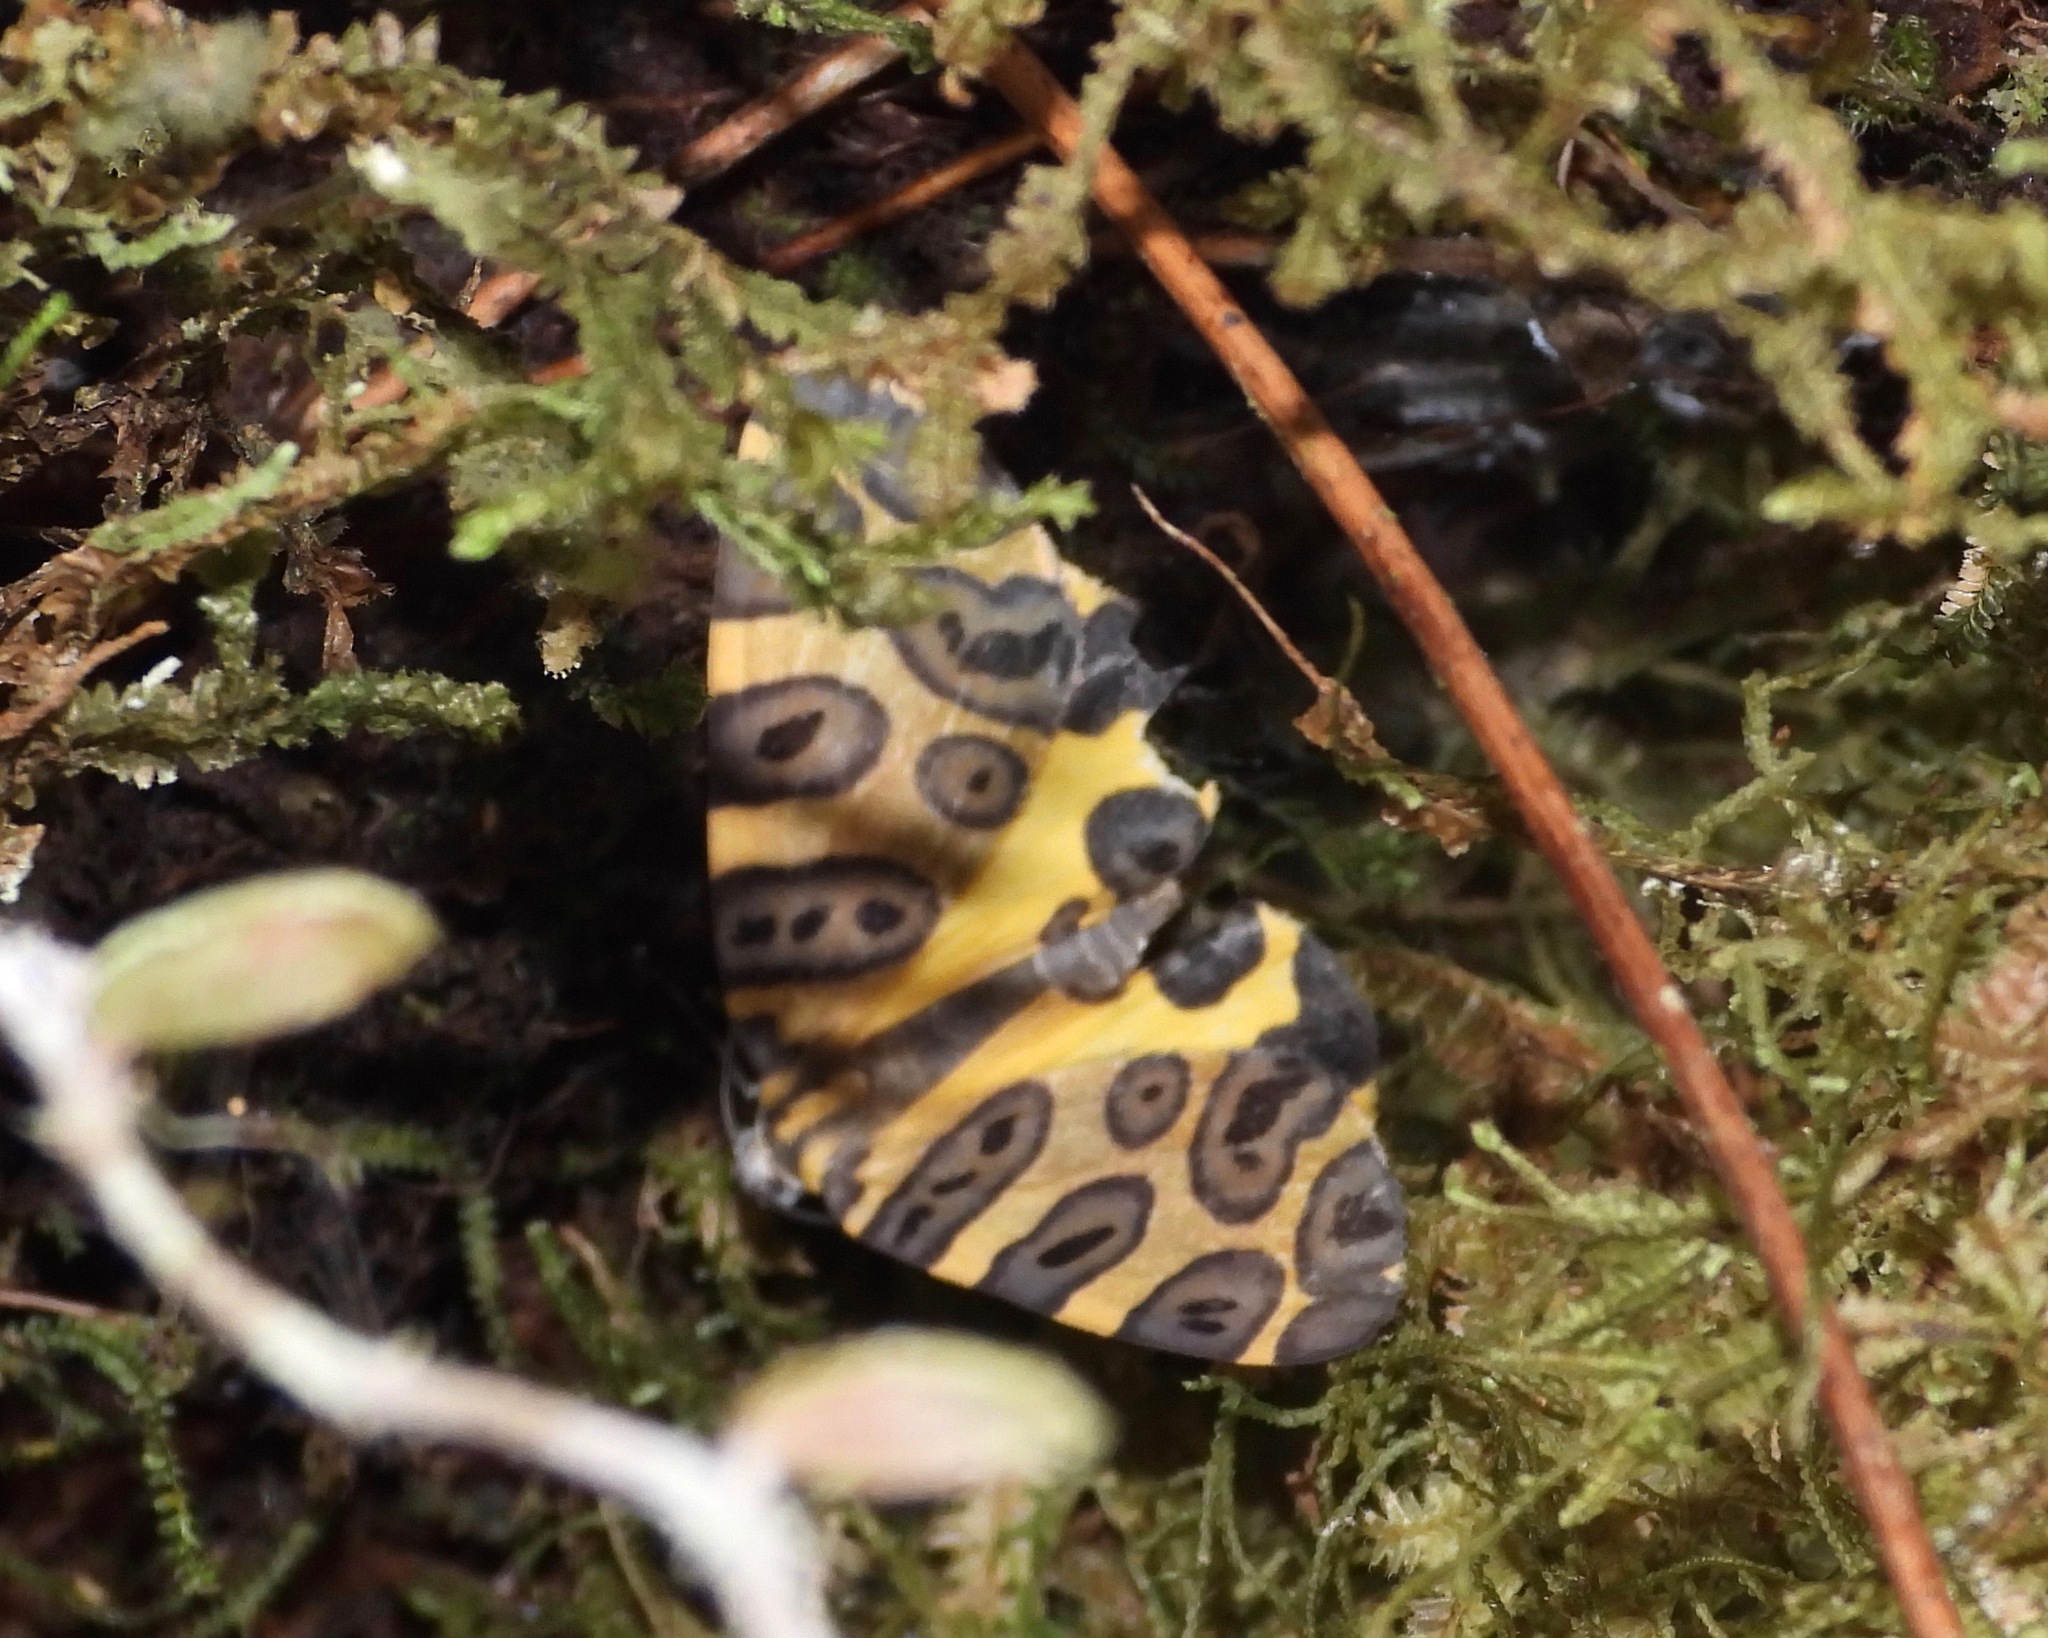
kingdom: Animalia
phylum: Arthropoda
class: Insecta
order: Lepidoptera
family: Geometridae
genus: Pantherodes
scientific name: Pantherodes pardalaria
